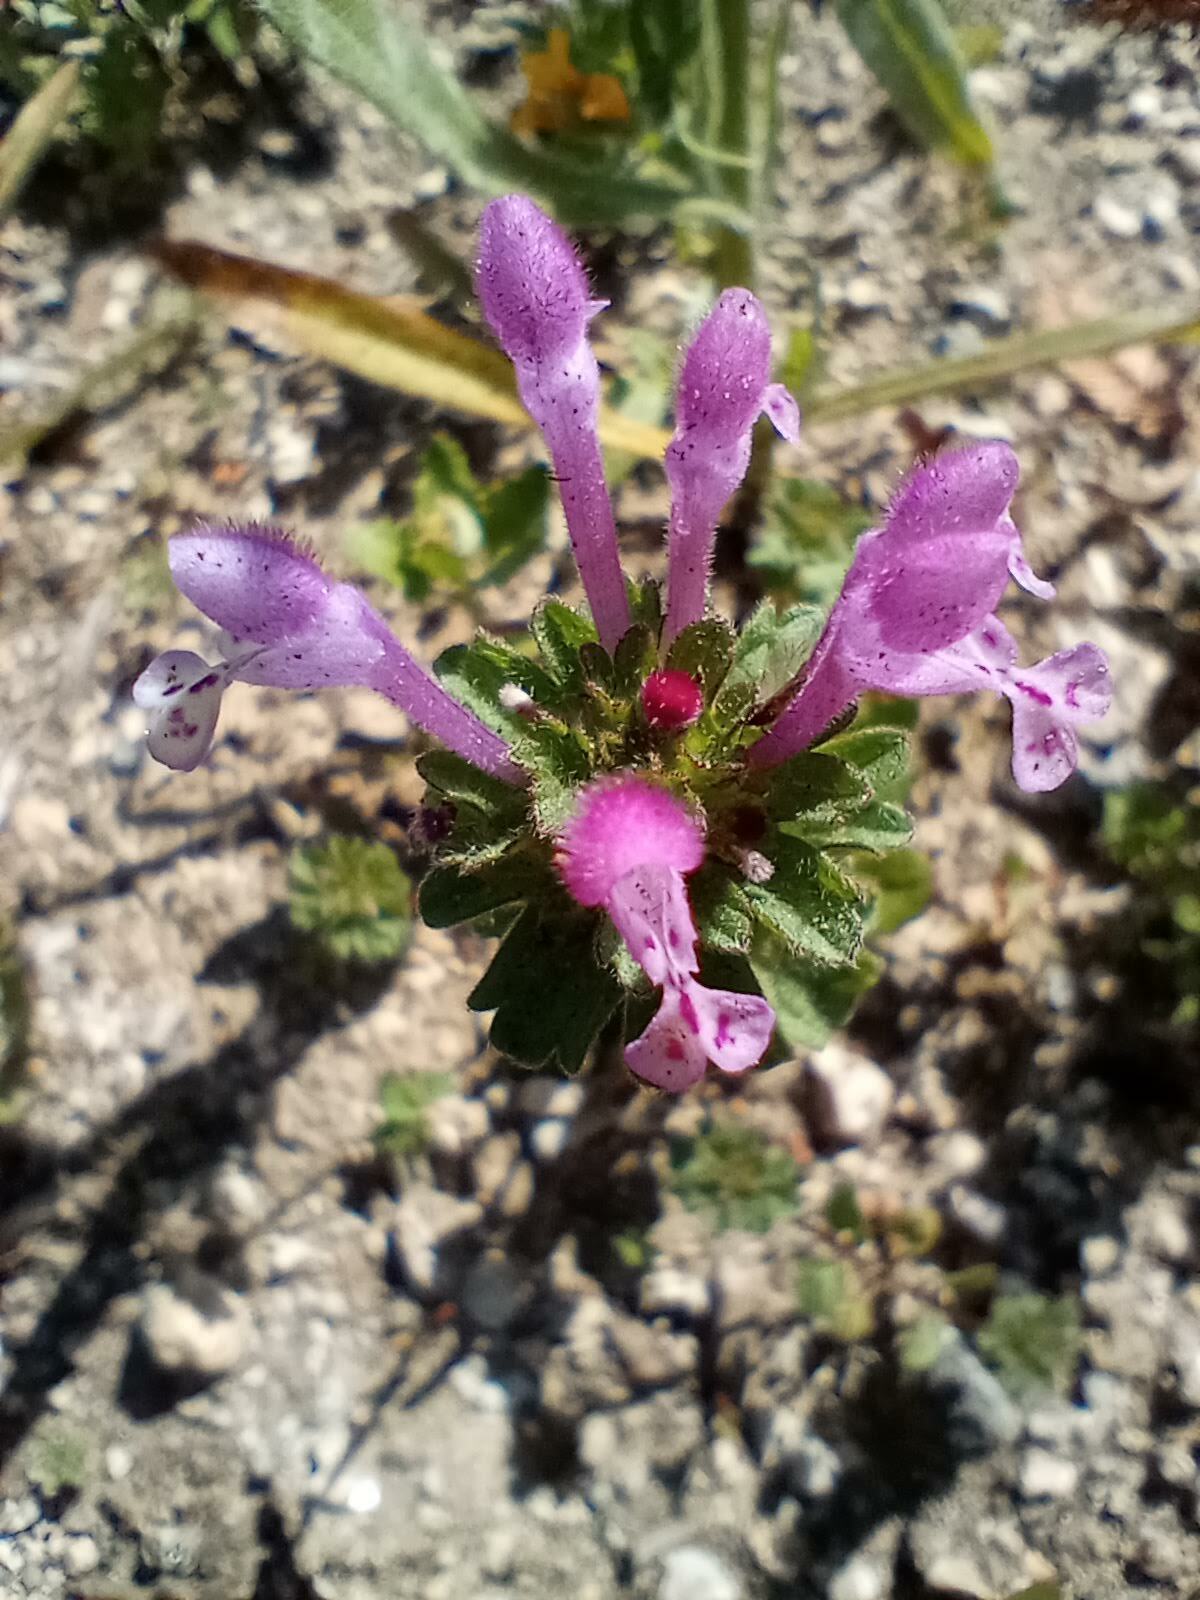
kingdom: Plantae
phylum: Tracheophyta
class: Magnoliopsida
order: Lamiales
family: Lamiaceae
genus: Lamium
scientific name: Lamium amplexicaule
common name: Henbit dead-nettle
